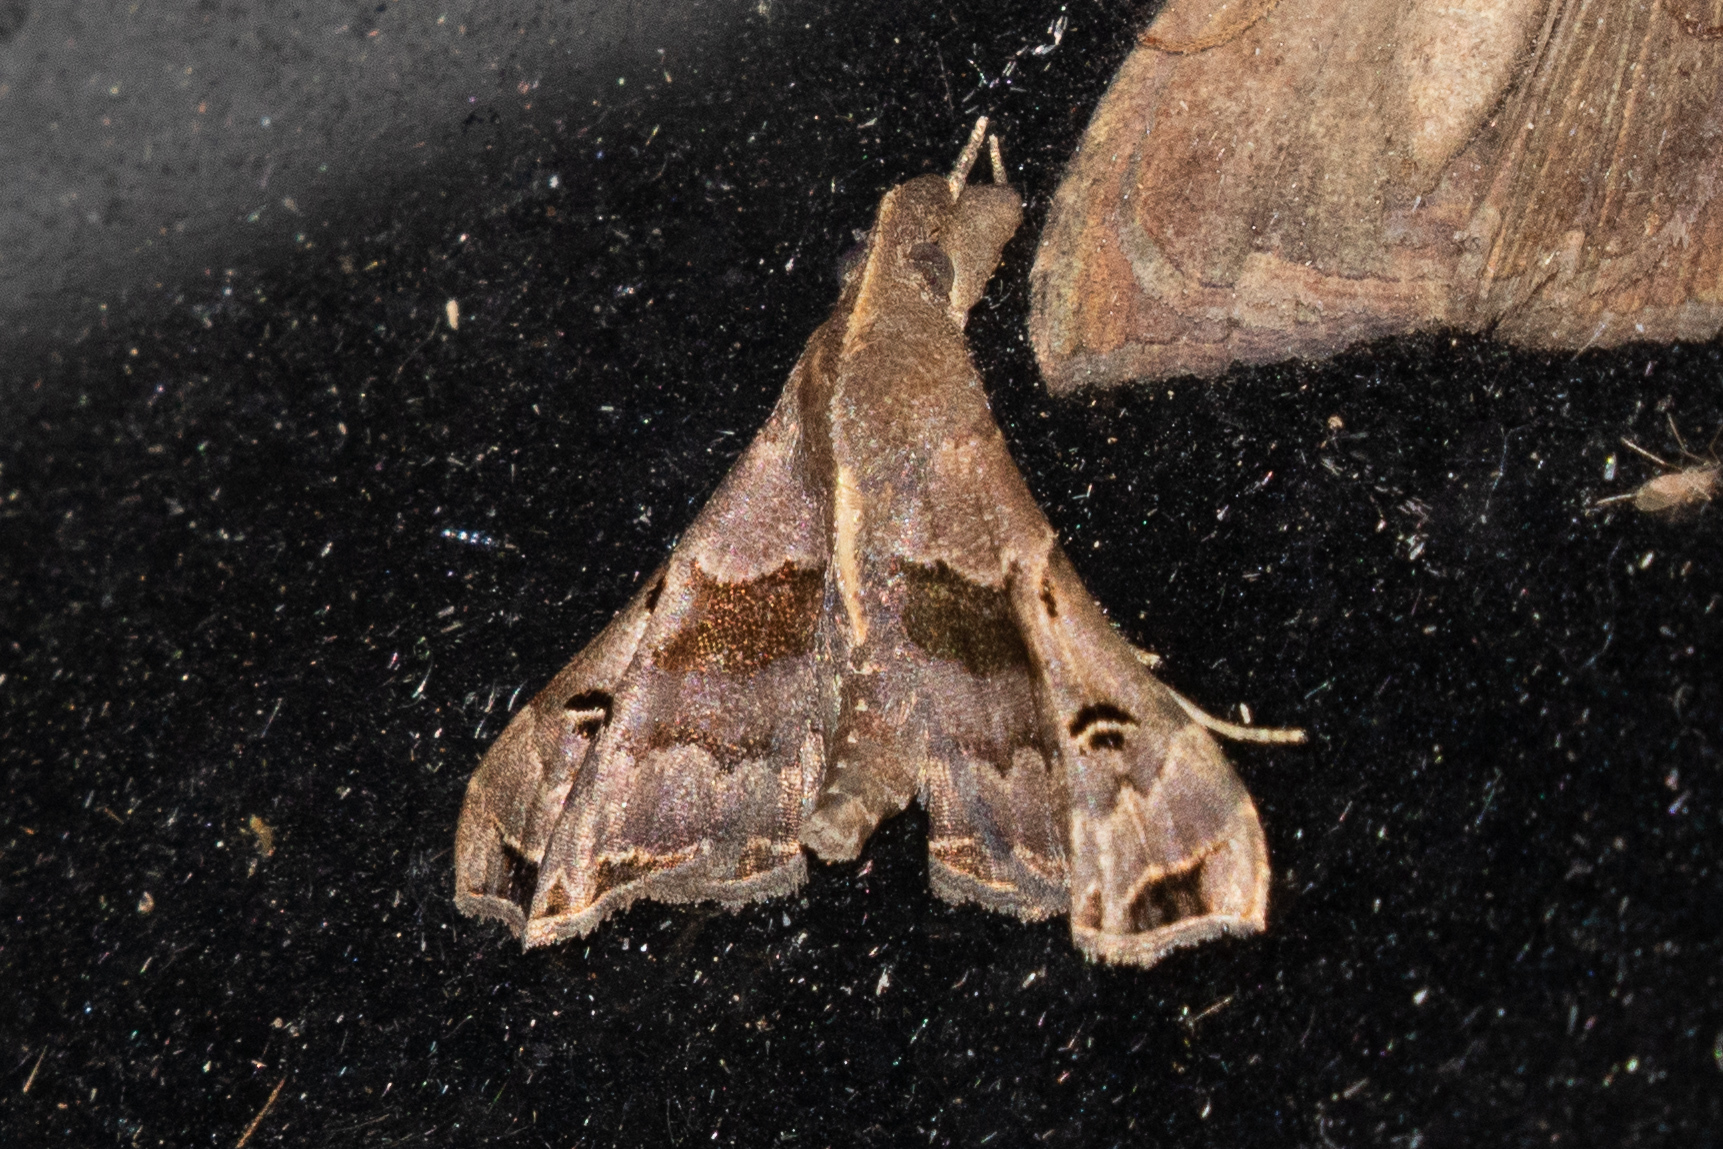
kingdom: Animalia
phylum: Arthropoda
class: Insecta
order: Lepidoptera
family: Erebidae
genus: Palthis
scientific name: Palthis asopialis
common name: Faint-spotted palthis moth
